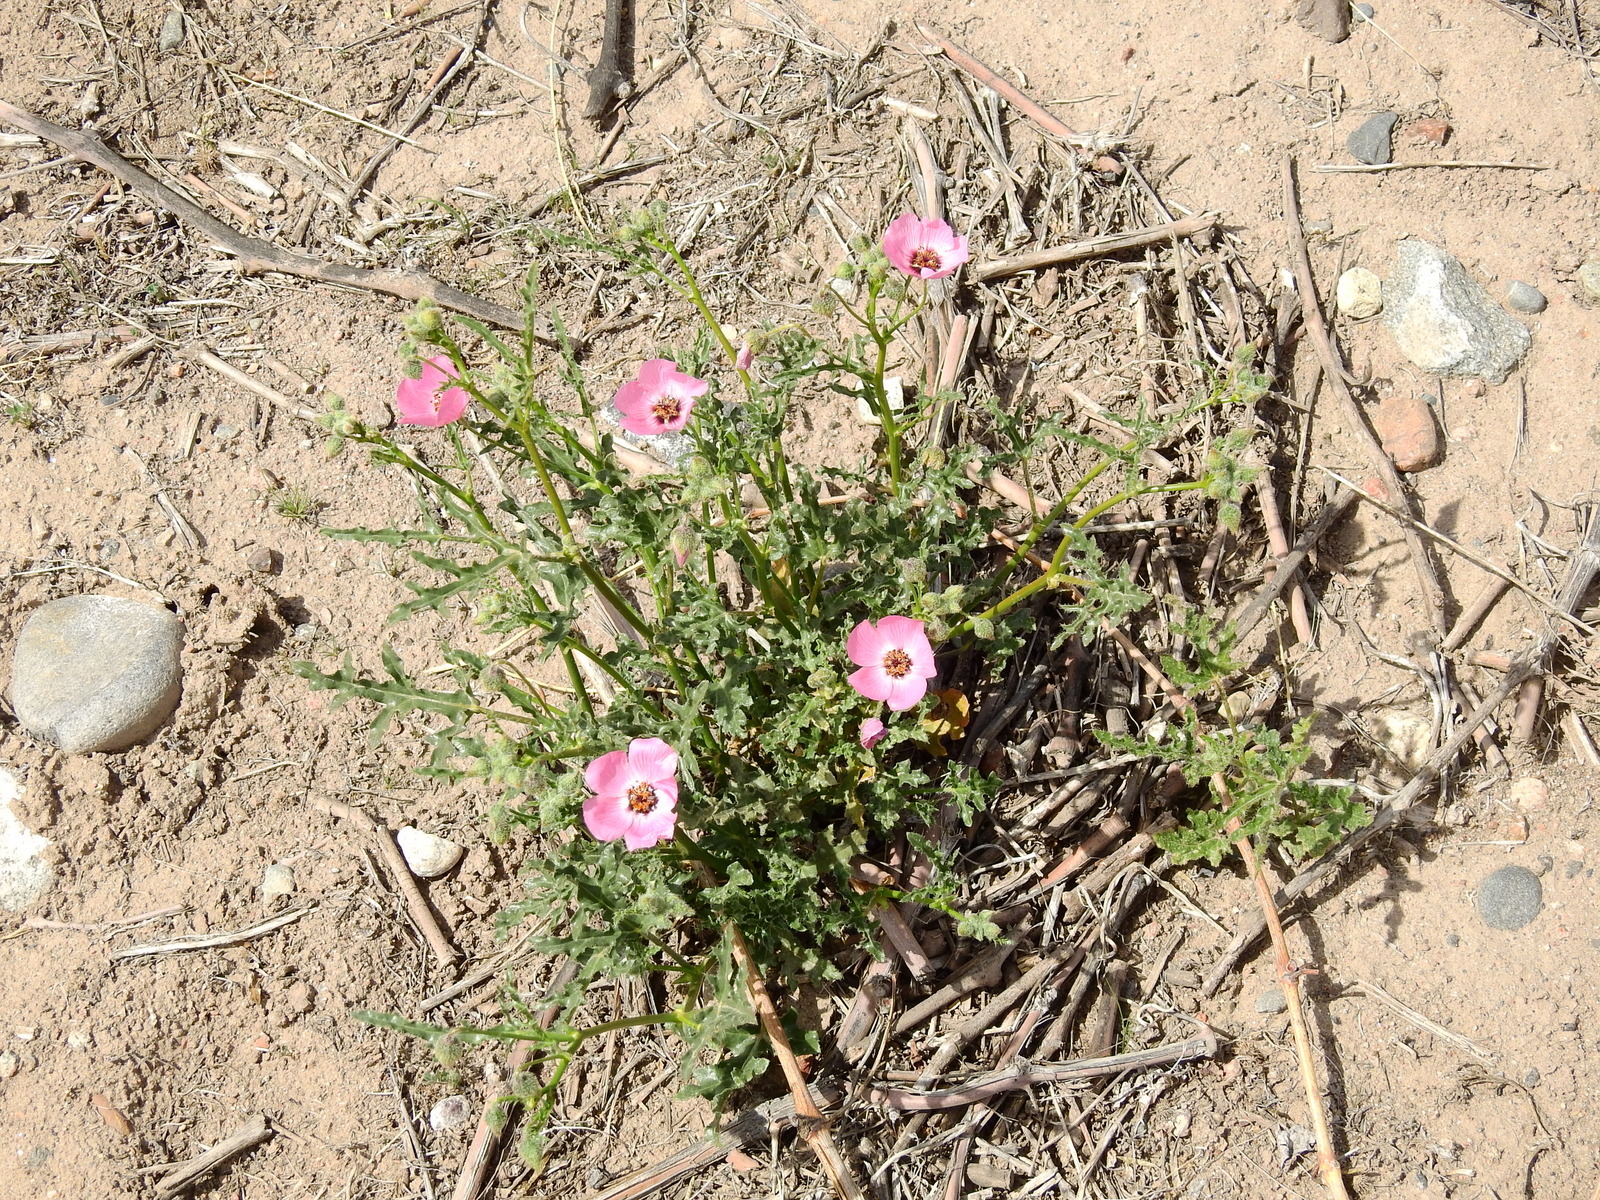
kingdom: Plantae
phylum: Tracheophyta
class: Magnoliopsida
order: Malvales
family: Malvaceae
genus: Lecanophora
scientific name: Lecanophora heterophylla
